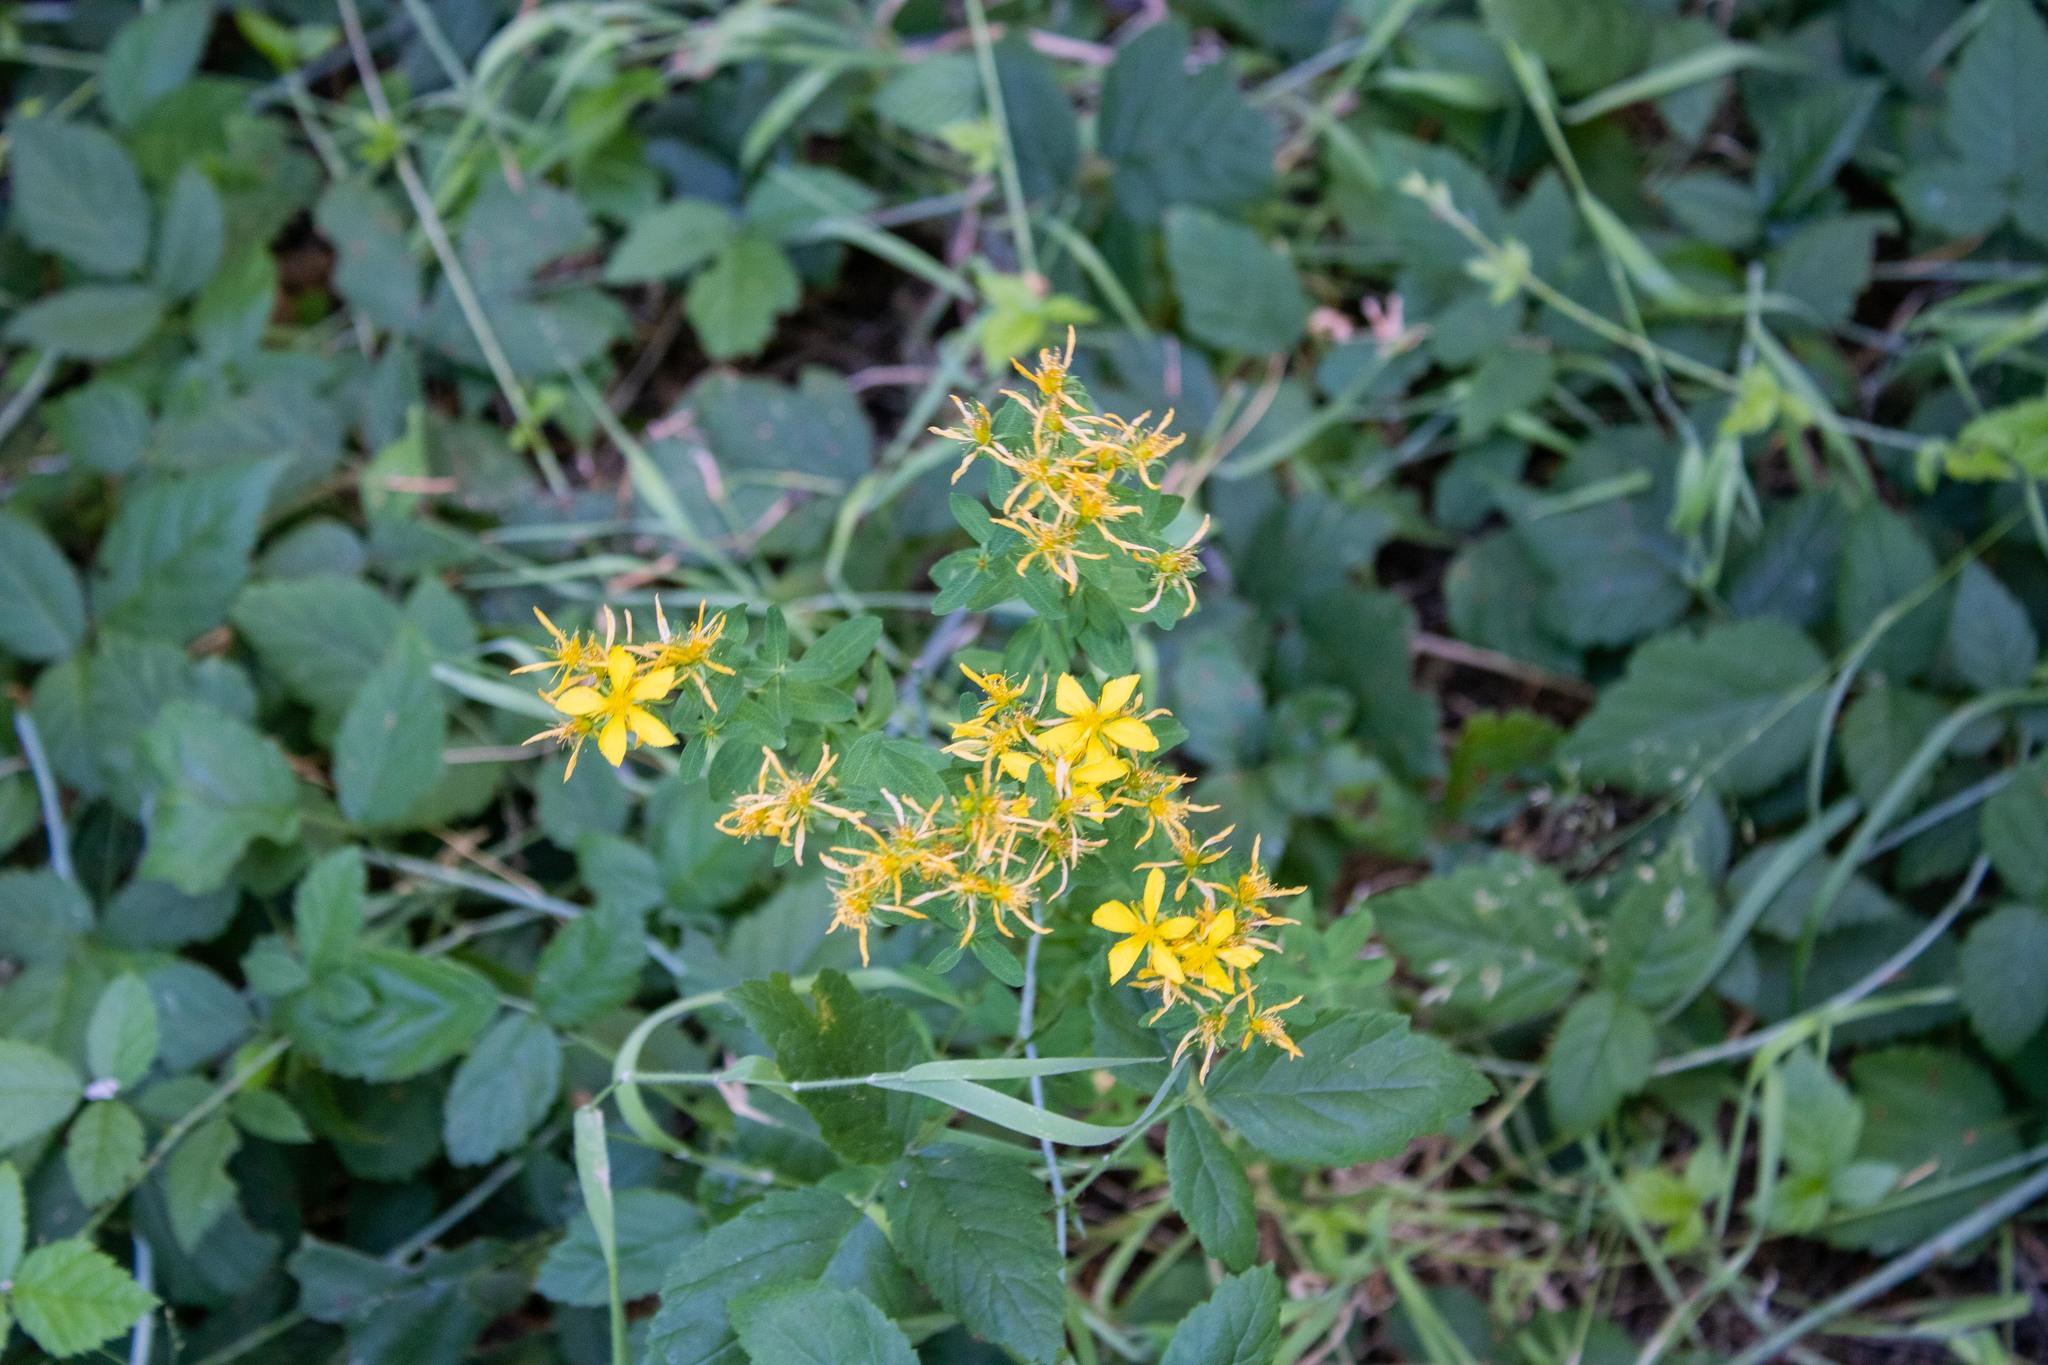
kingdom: Plantae
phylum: Tracheophyta
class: Magnoliopsida
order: Malpighiales
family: Hypericaceae
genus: Hypericum
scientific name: Hypericum perforatum
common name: Common st. johnswort
